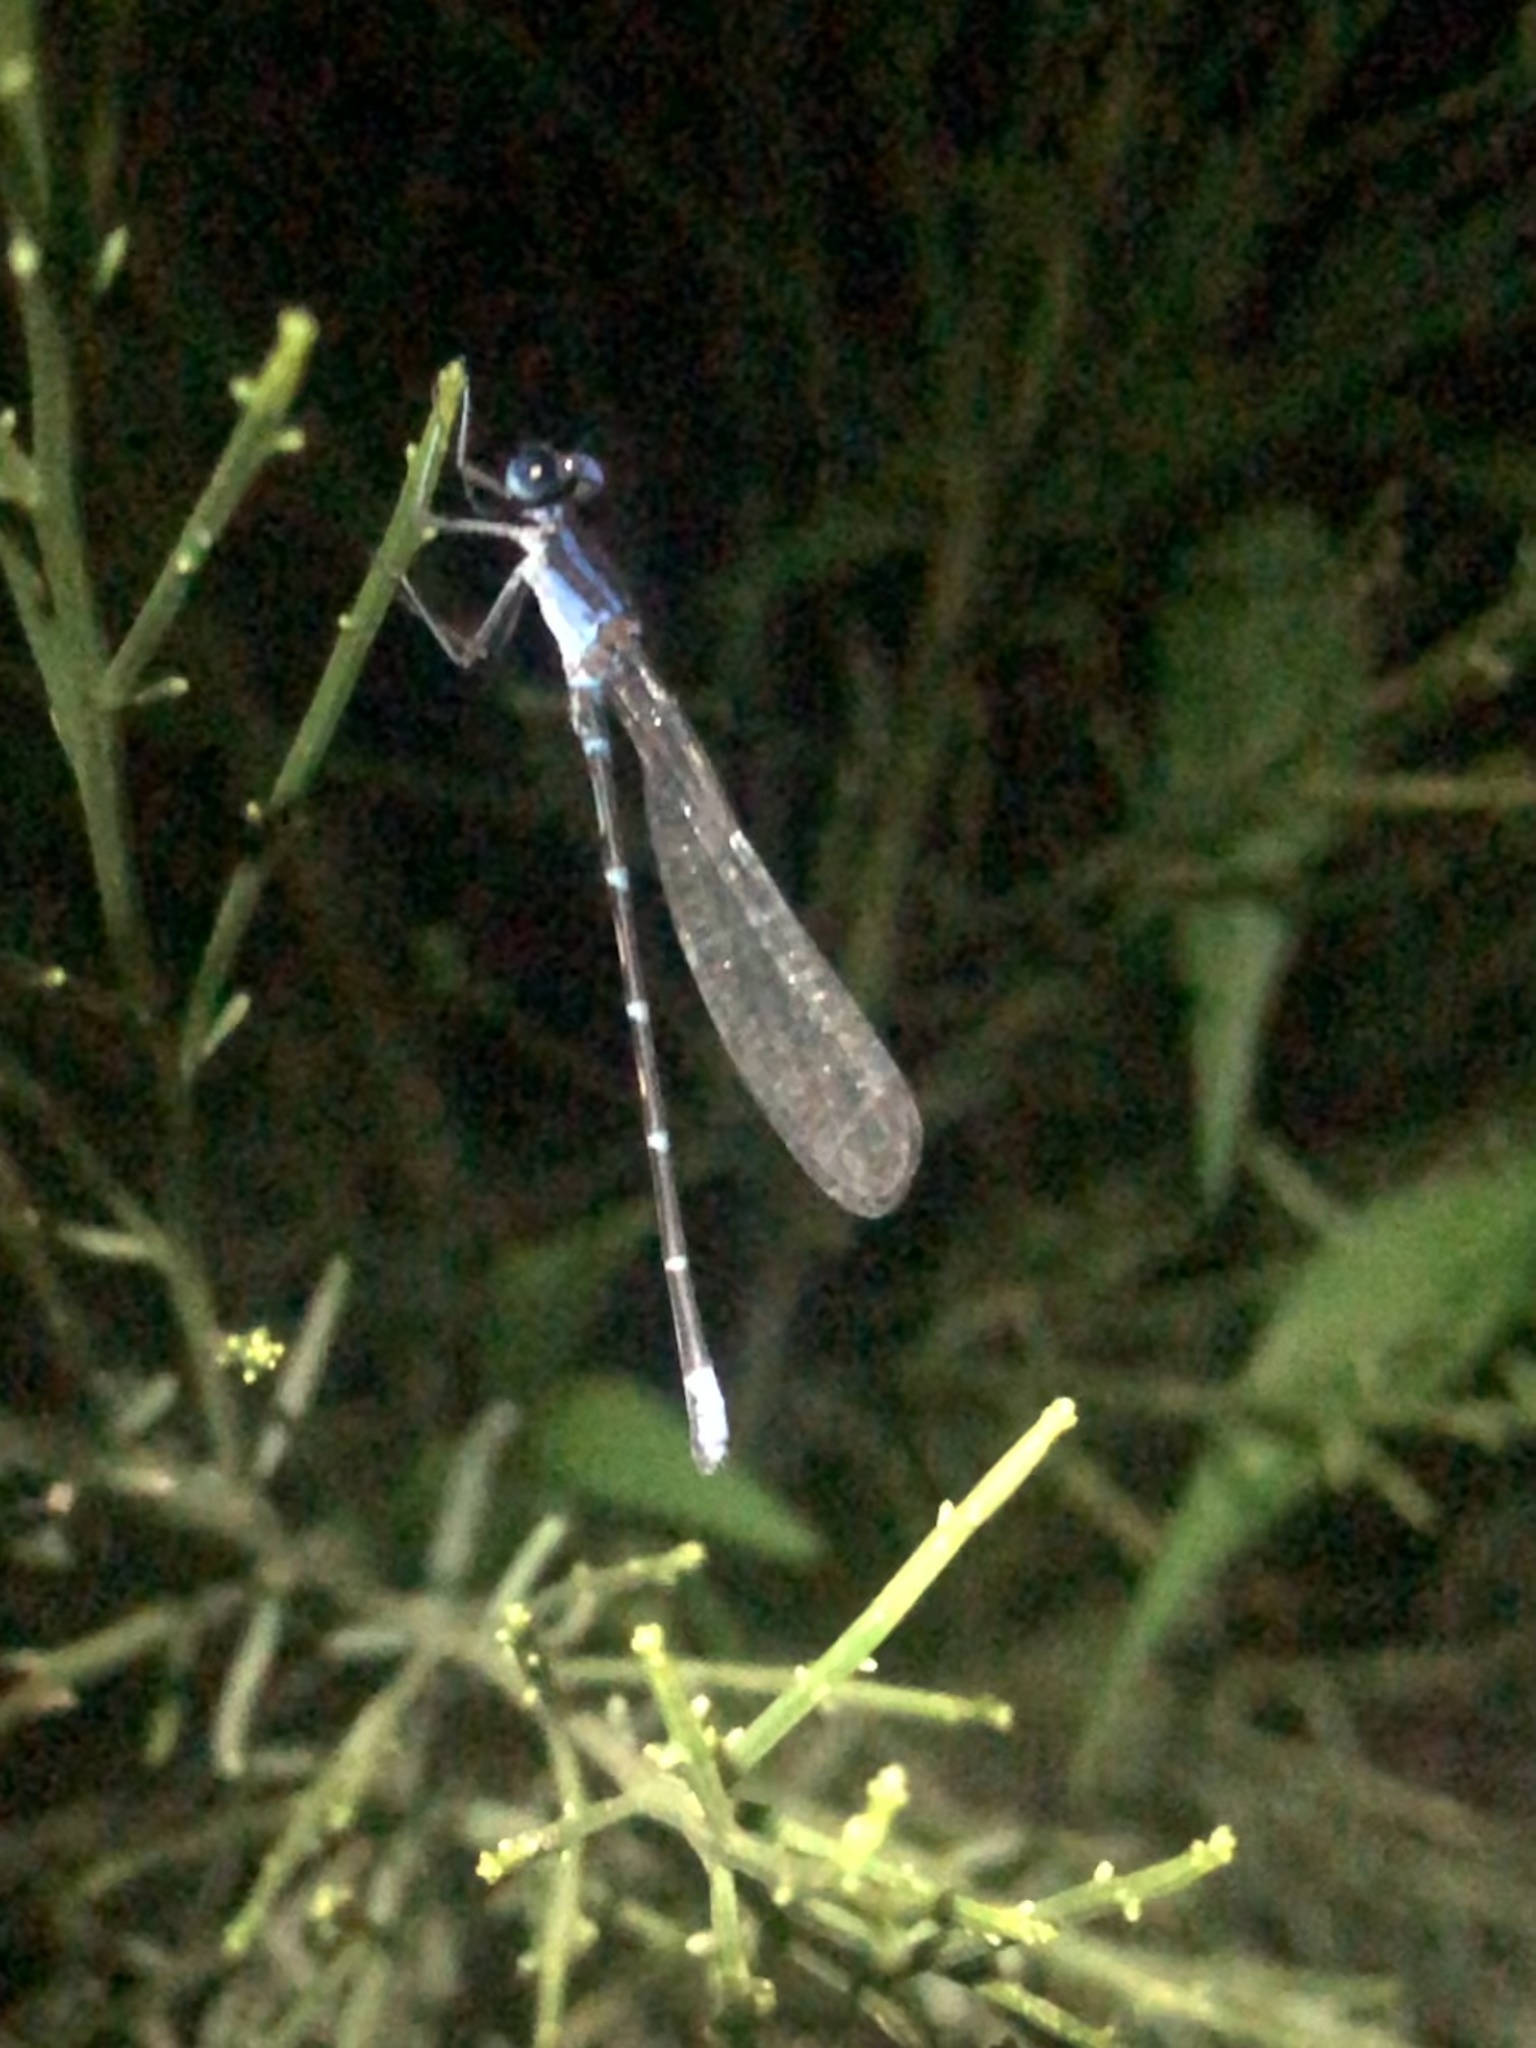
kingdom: Animalia
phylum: Arthropoda
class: Insecta
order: Odonata
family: Coenagrionidae
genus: Argia
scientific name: Argia sedula
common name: Blue-ringed dancer
